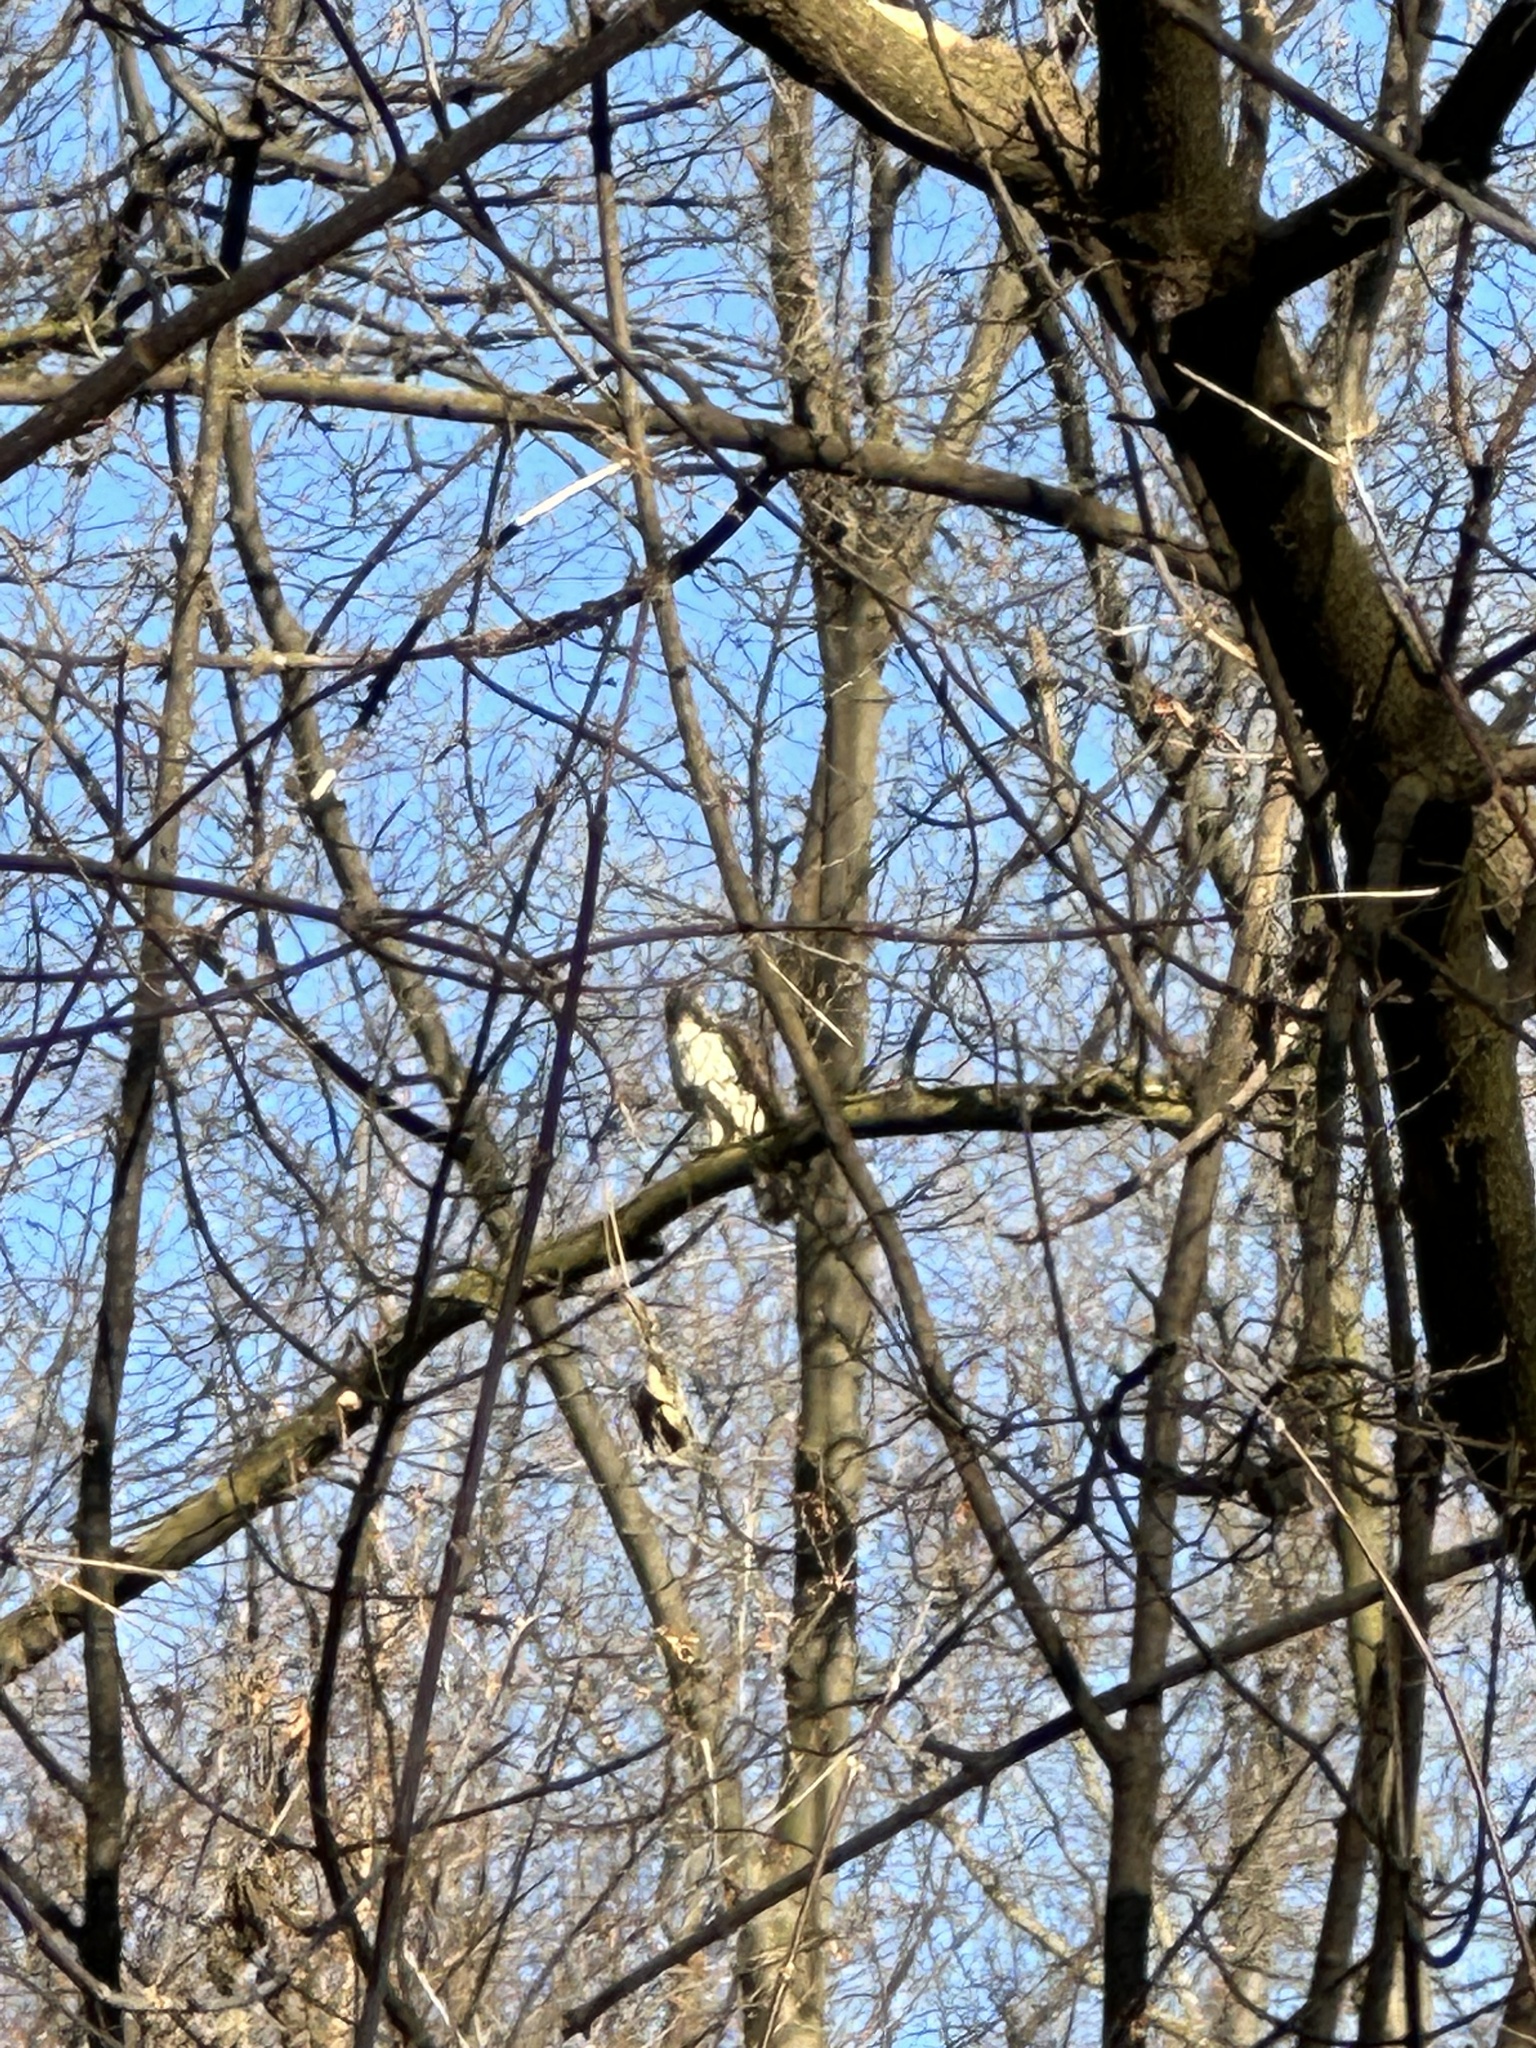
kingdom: Animalia
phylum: Chordata
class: Aves
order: Accipitriformes
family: Accipitridae
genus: Buteo
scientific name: Buteo jamaicensis
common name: Red-tailed hawk
